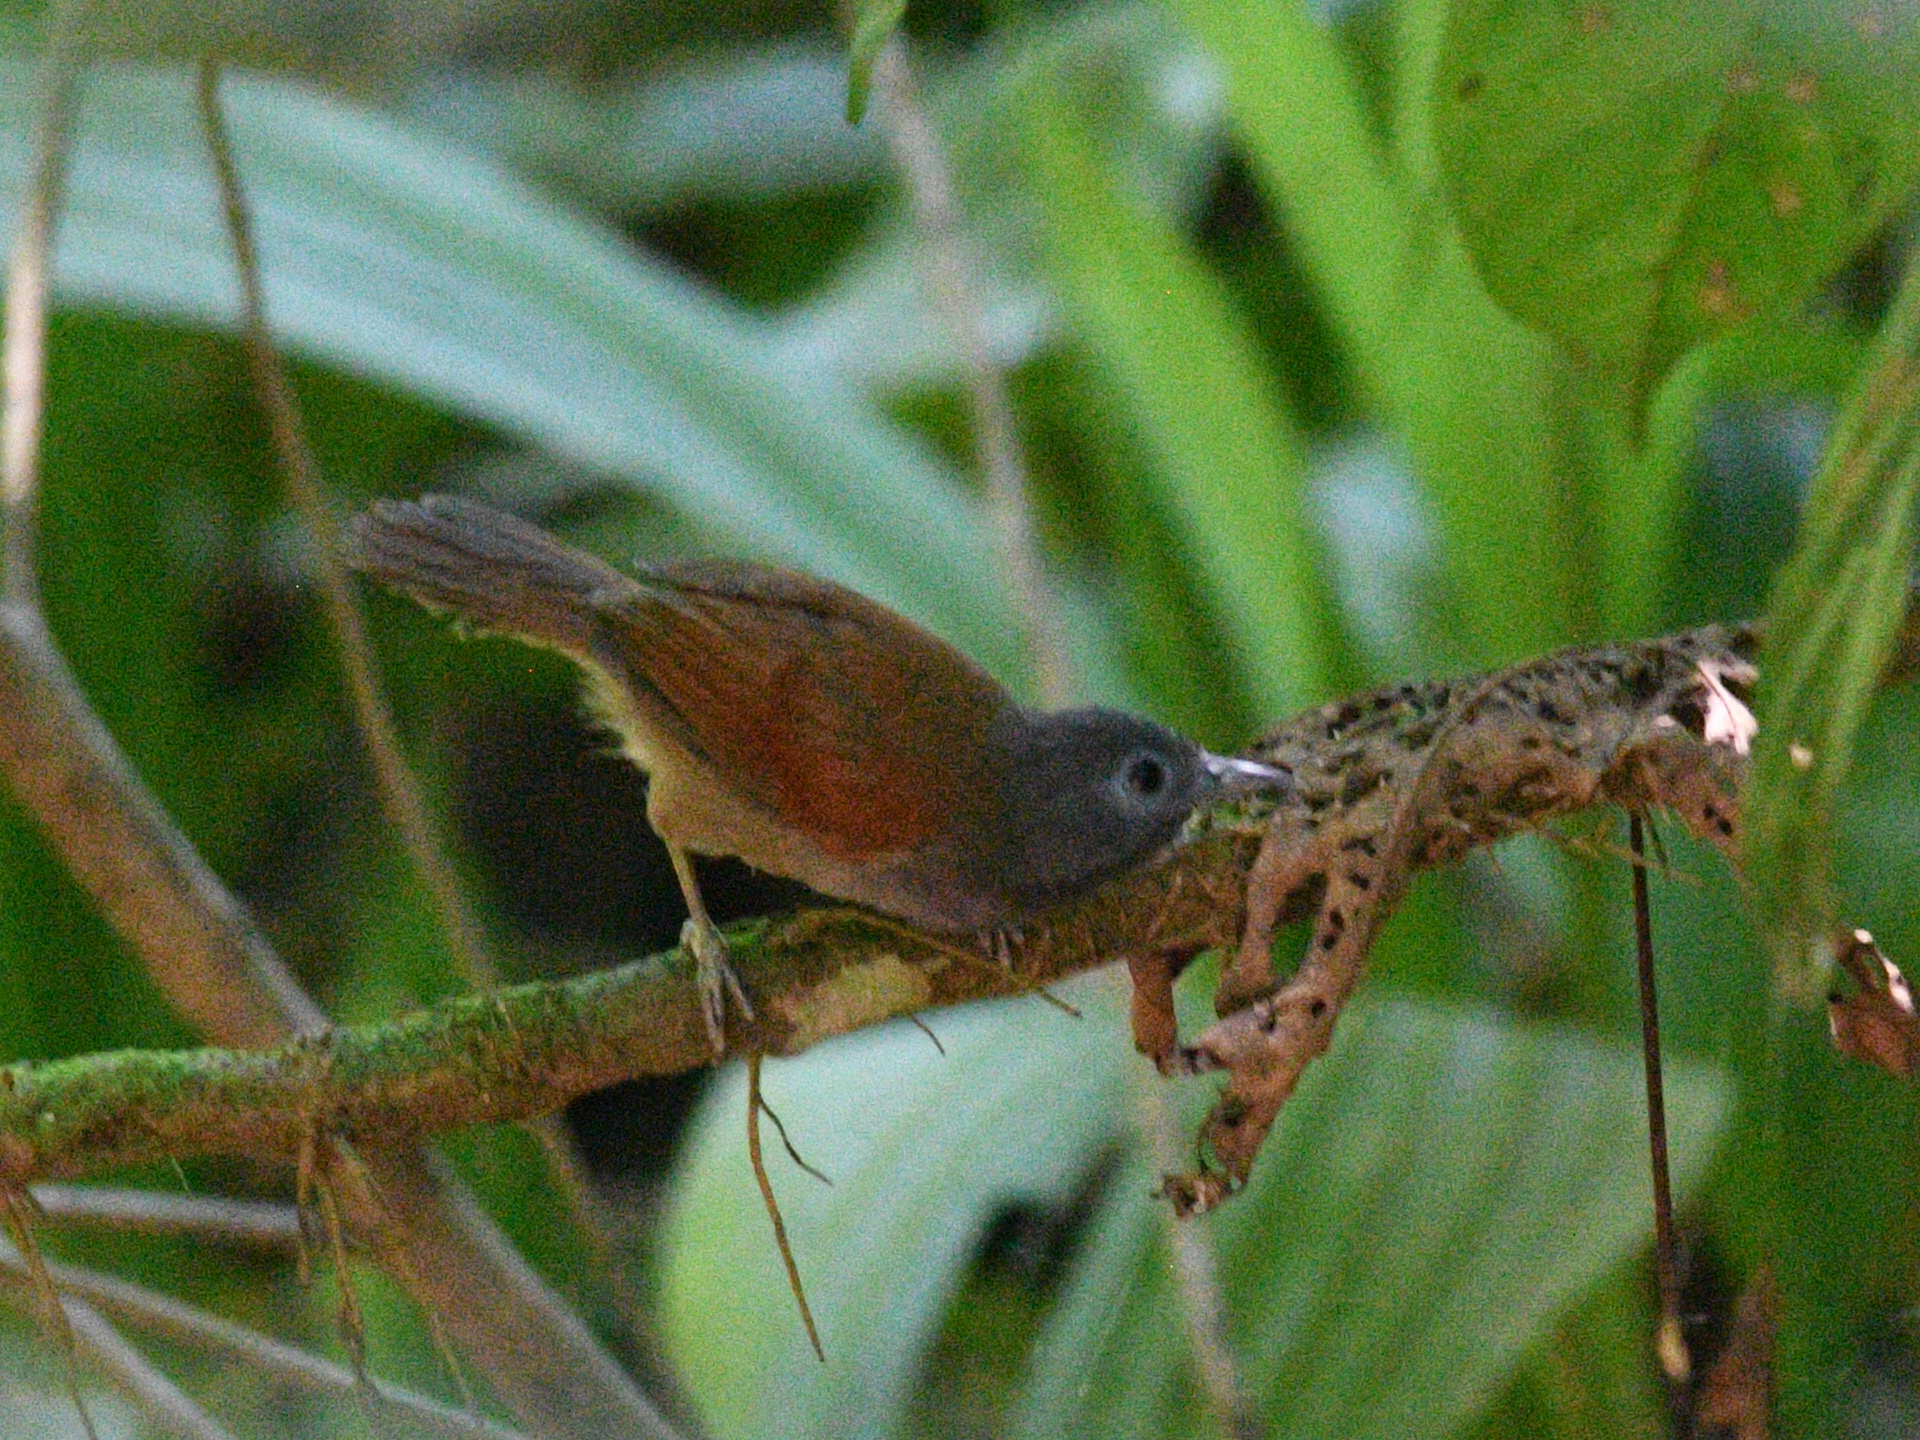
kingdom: Animalia
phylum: Chordata
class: Aves
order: Passeriformes
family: Timaliidae
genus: Stachyris
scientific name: Stachyris erythroptera
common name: Chestnut-winged babbler
